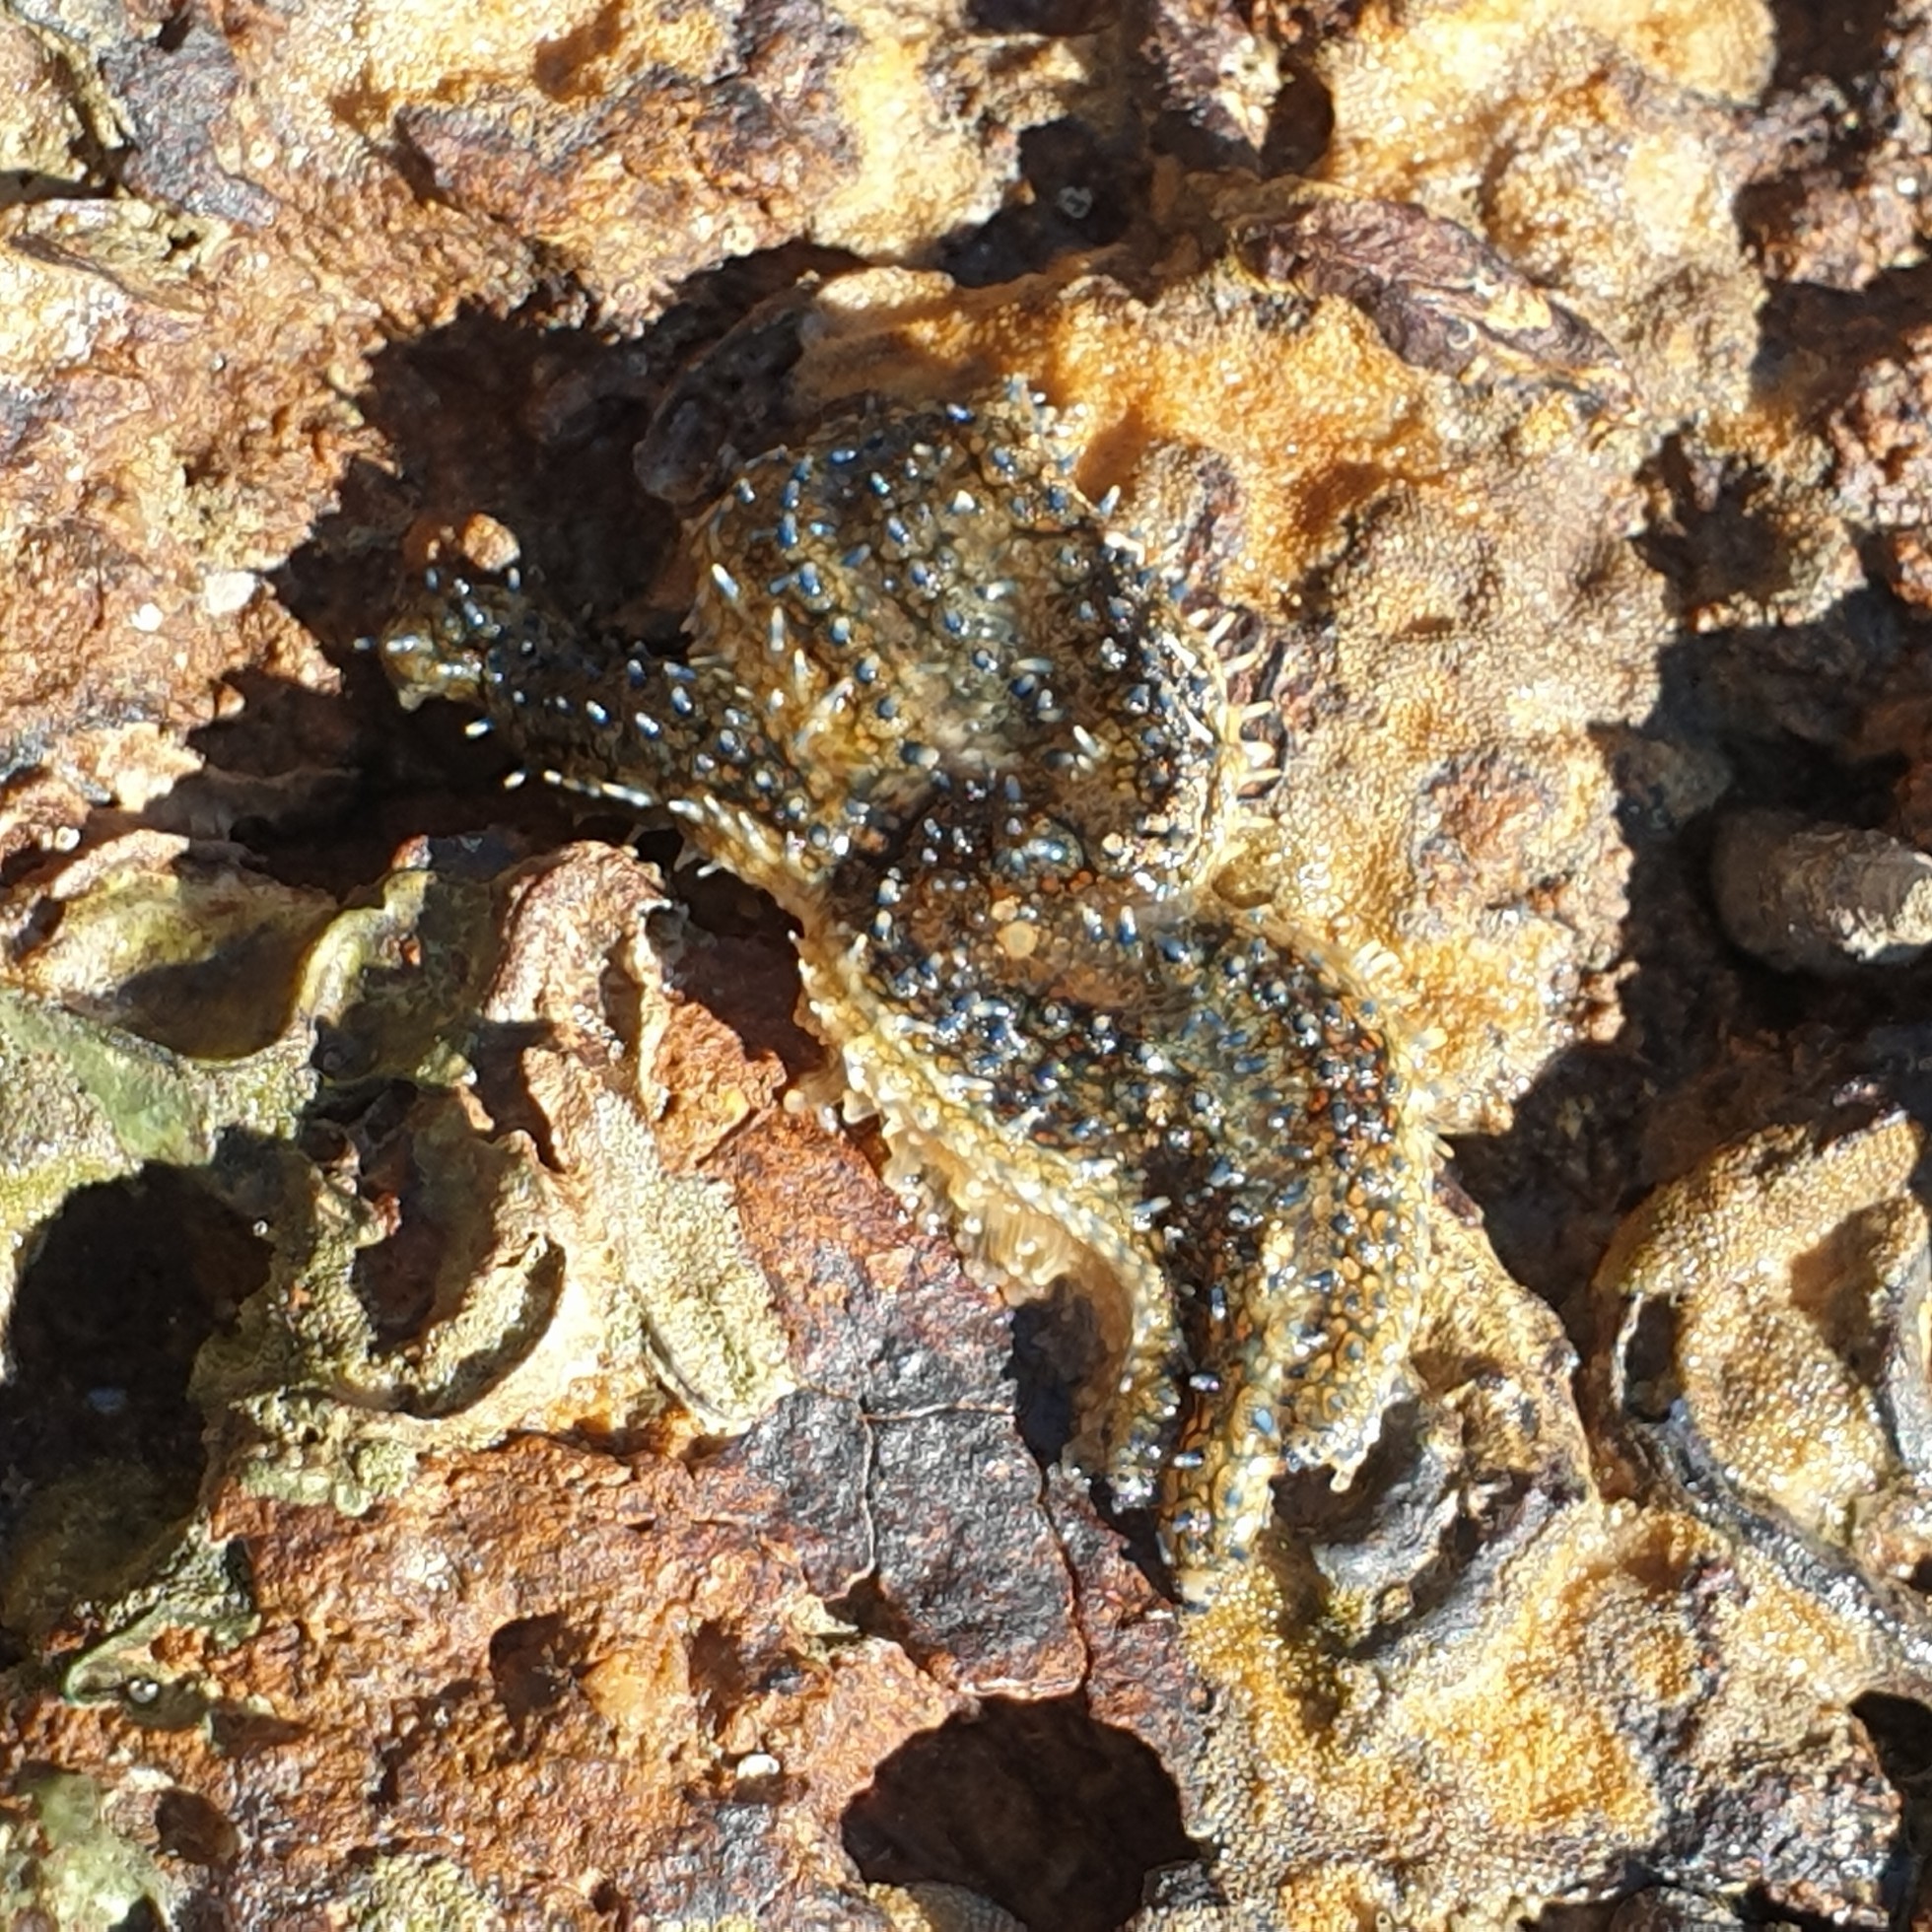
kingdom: Animalia
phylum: Echinodermata
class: Asteroidea
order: Forcipulatida
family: Asteriidae
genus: Coscinasterias
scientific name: Coscinasterias muricata
